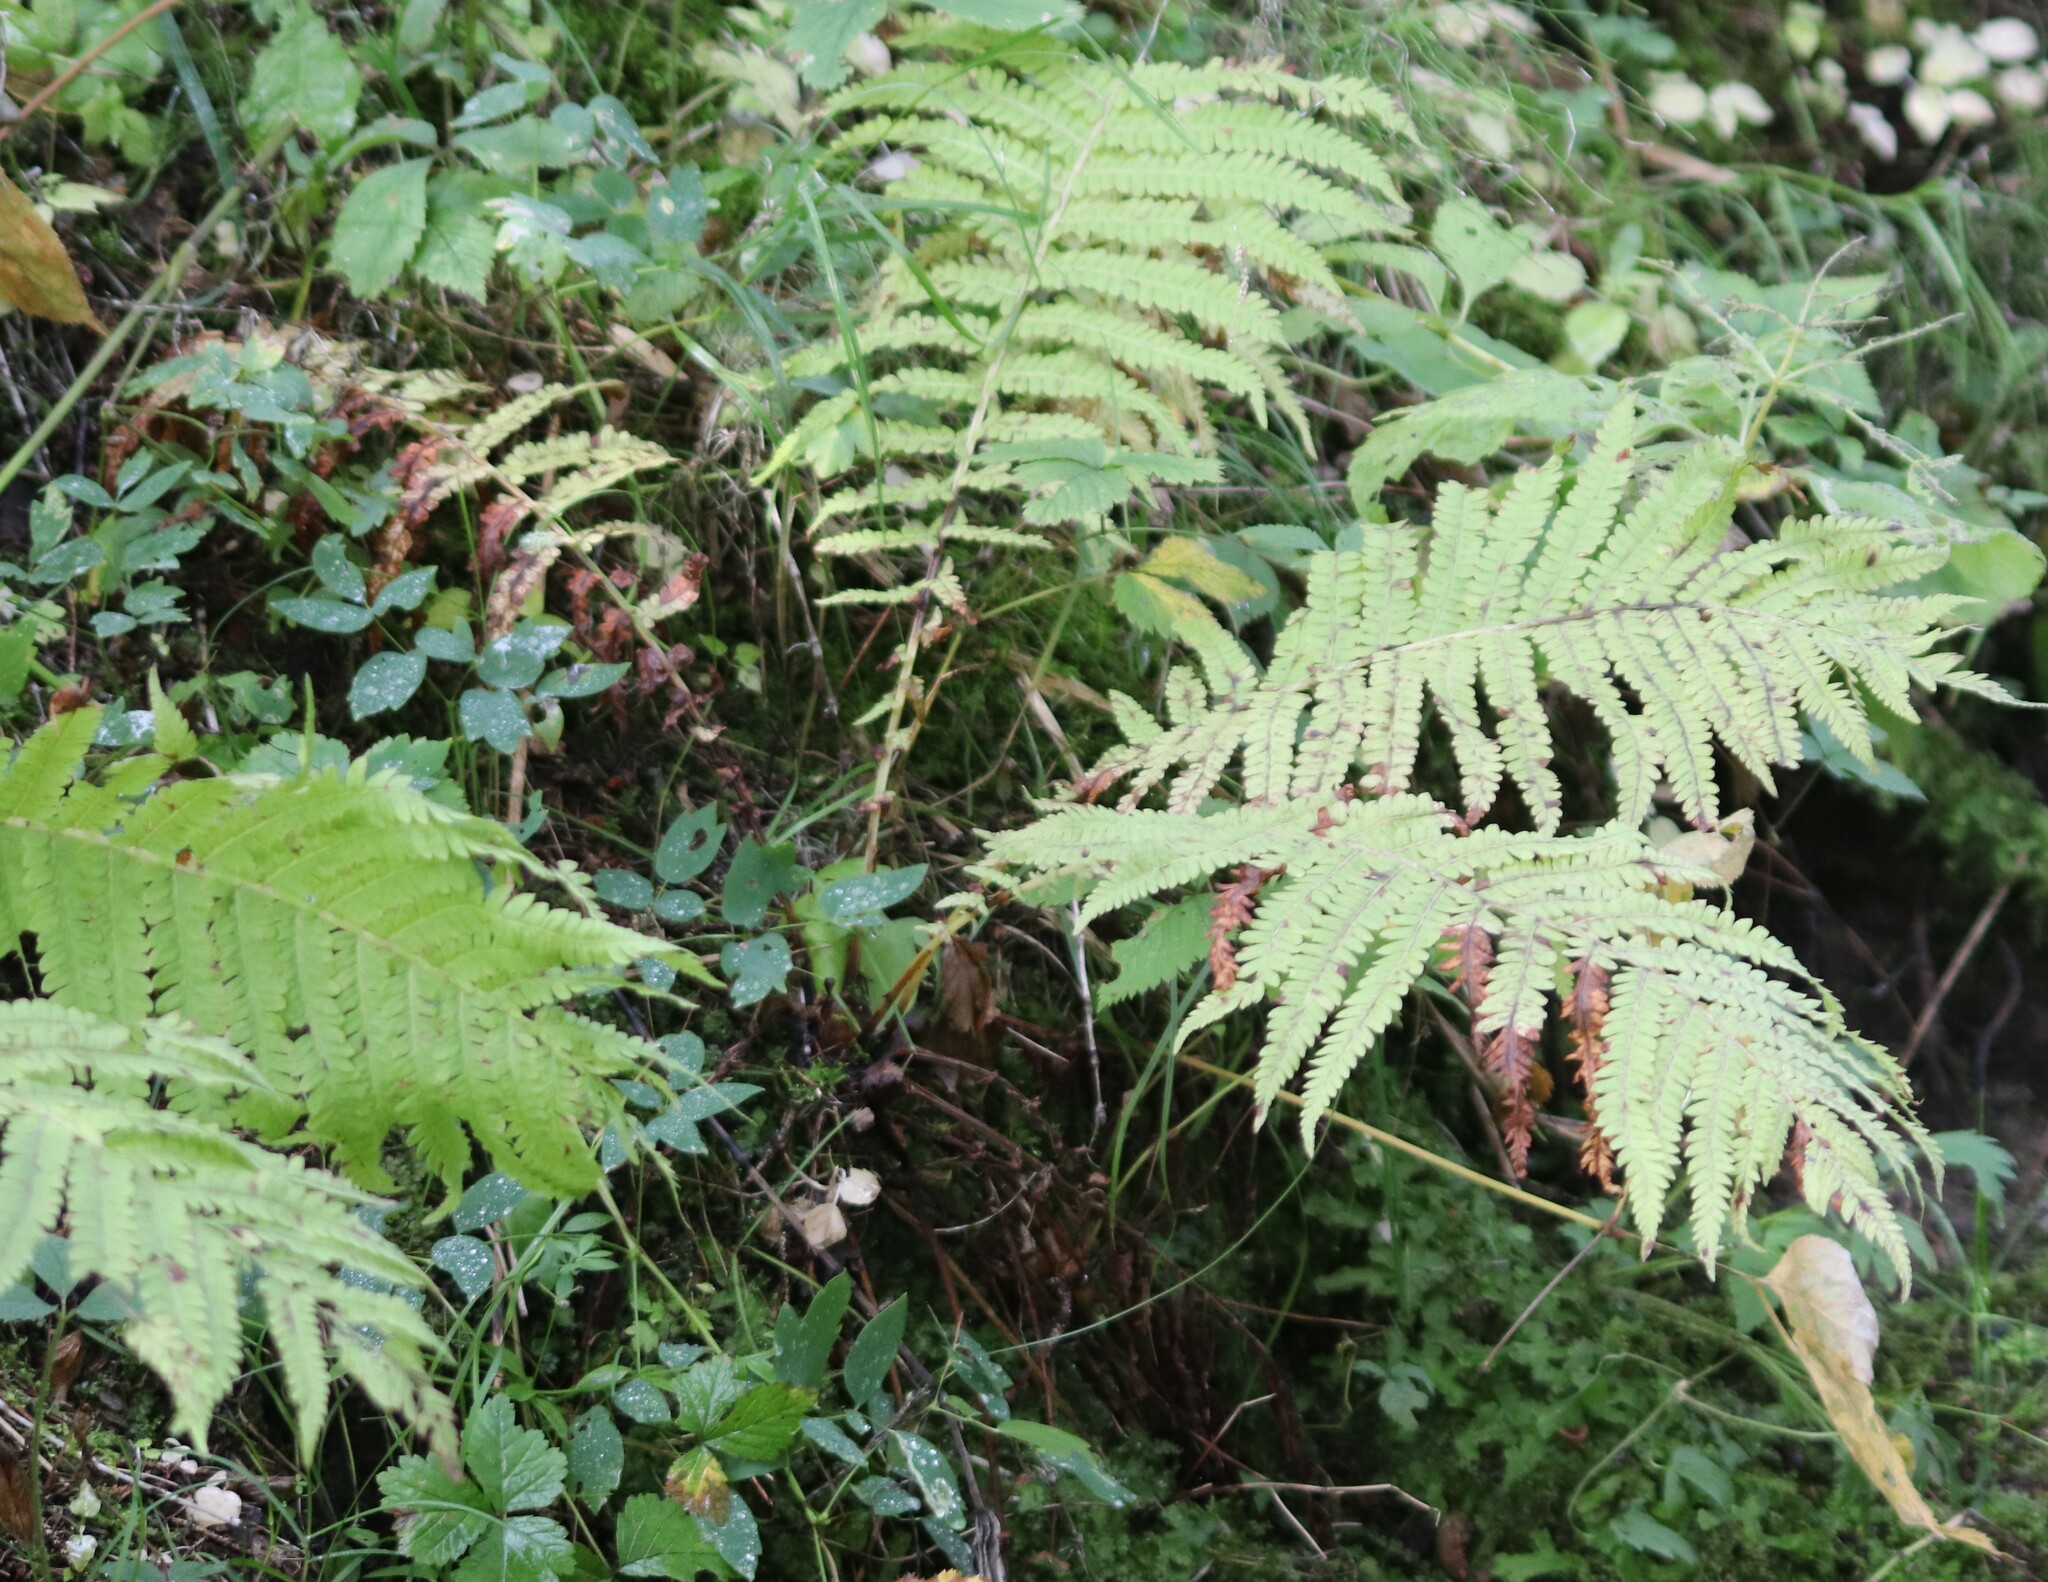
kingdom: Plantae
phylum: Tracheophyta
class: Polypodiopsida
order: Polypodiales
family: Onocleaceae
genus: Matteuccia
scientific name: Matteuccia struthiopteris
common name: Ostrich fern
